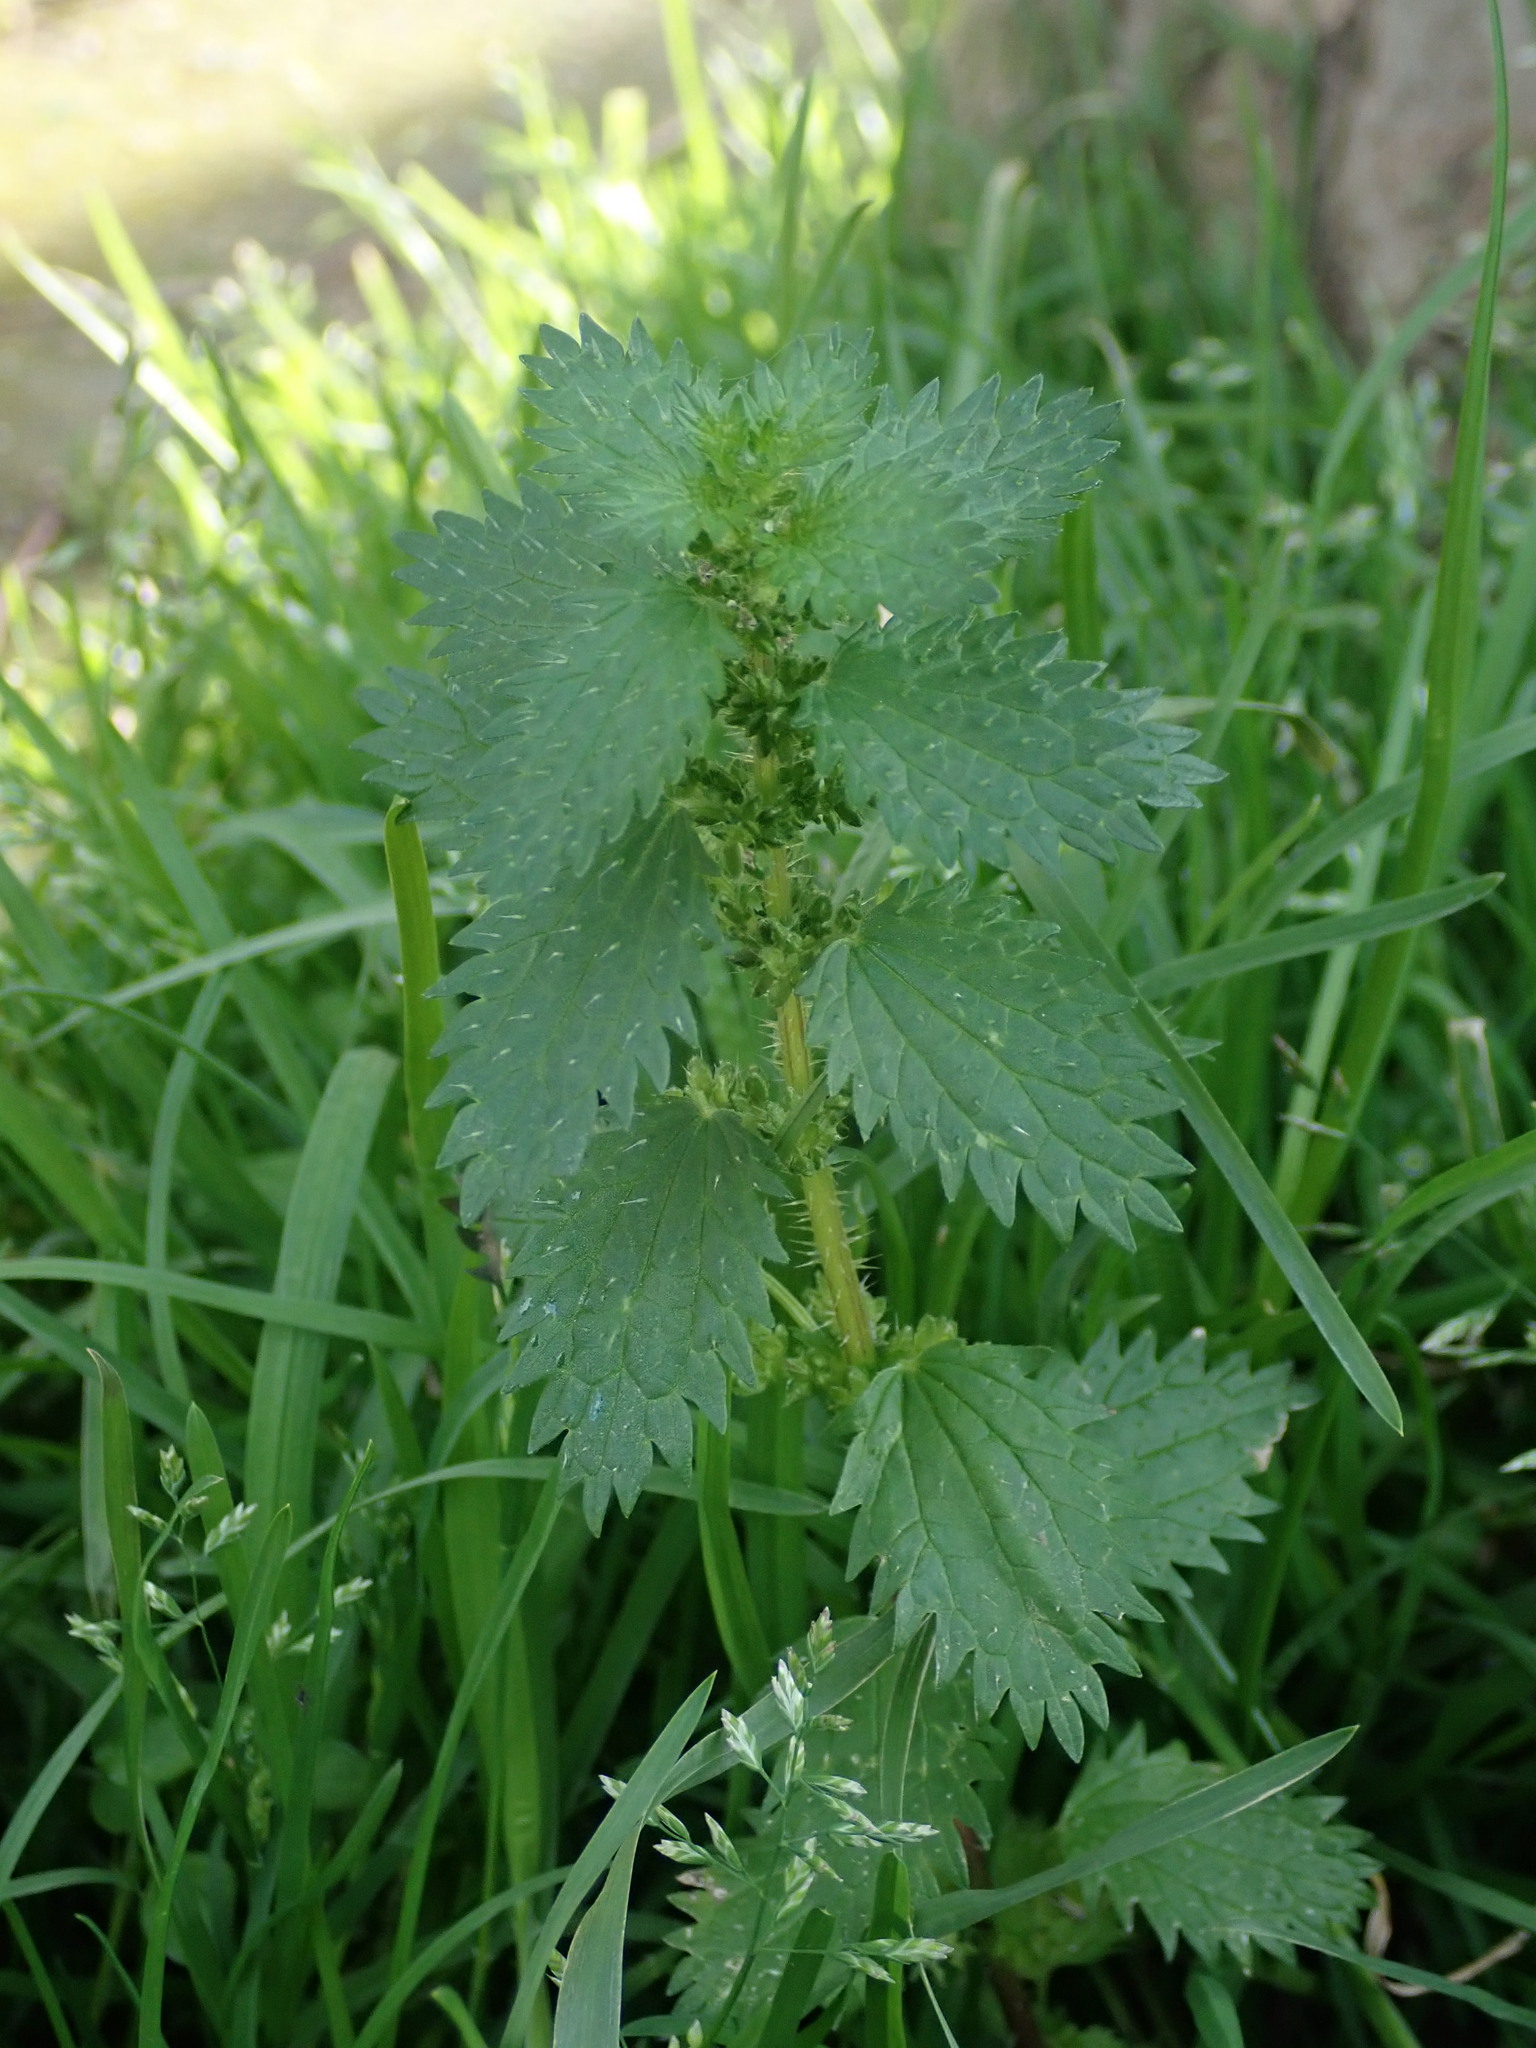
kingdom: Plantae
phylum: Tracheophyta
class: Magnoliopsida
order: Rosales
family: Urticaceae
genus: Urtica
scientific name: Urtica urens
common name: Dwarf nettle
